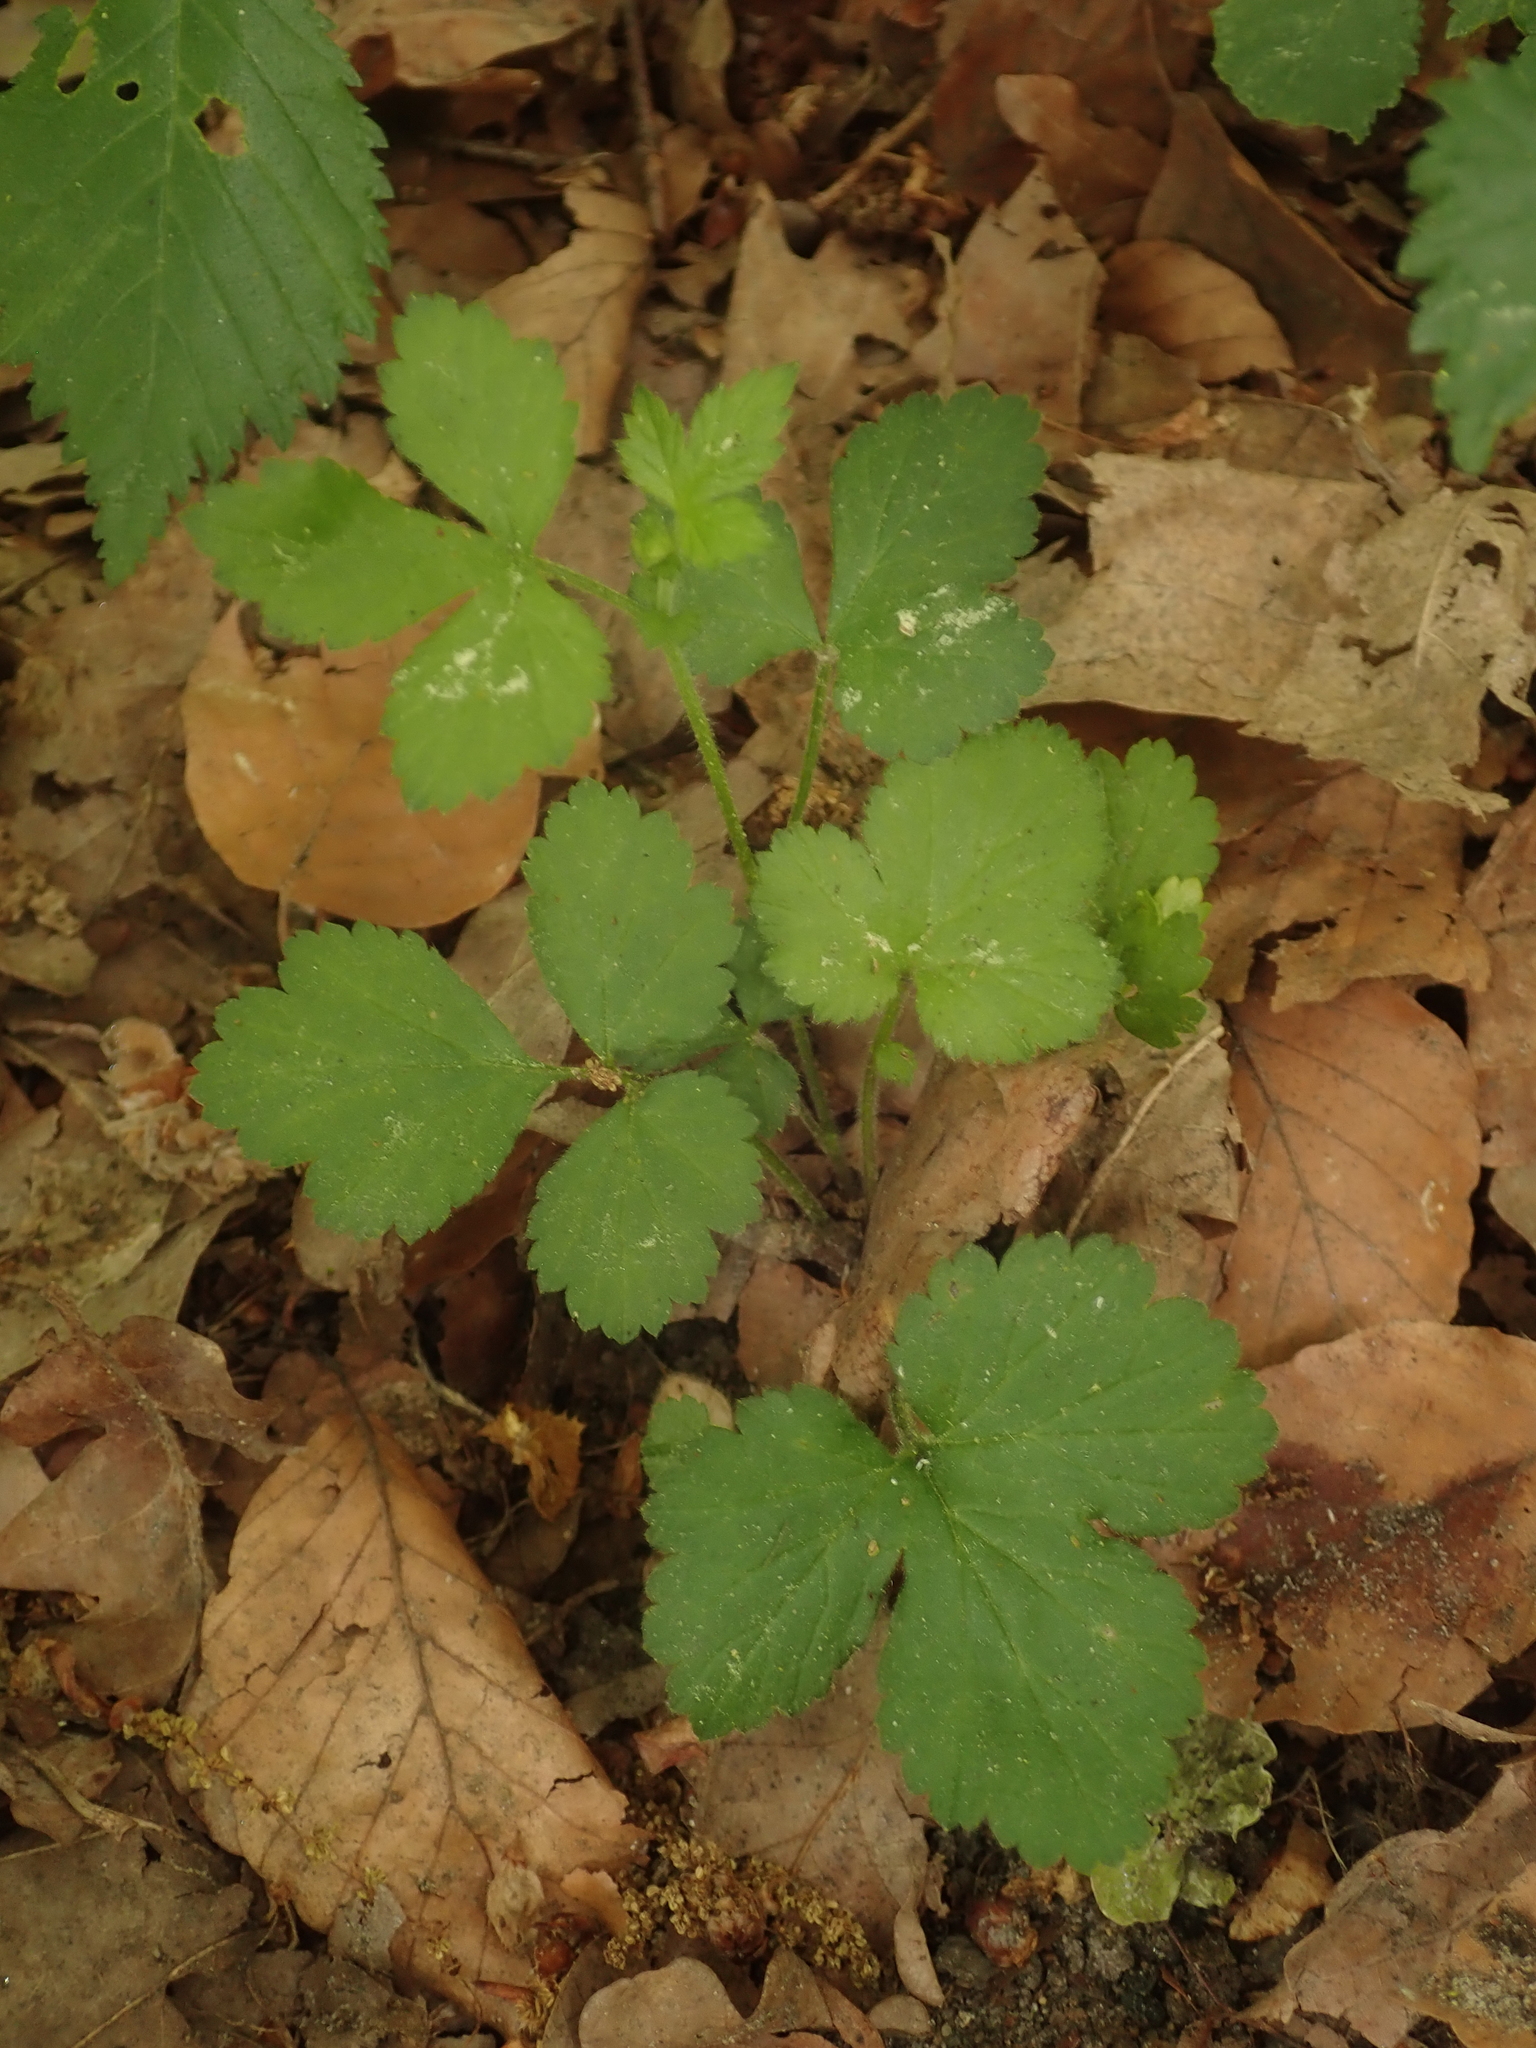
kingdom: Plantae
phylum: Tracheophyta
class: Magnoliopsida
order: Rosales
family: Rosaceae
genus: Geum
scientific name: Geum urbanum
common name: Wood avens
